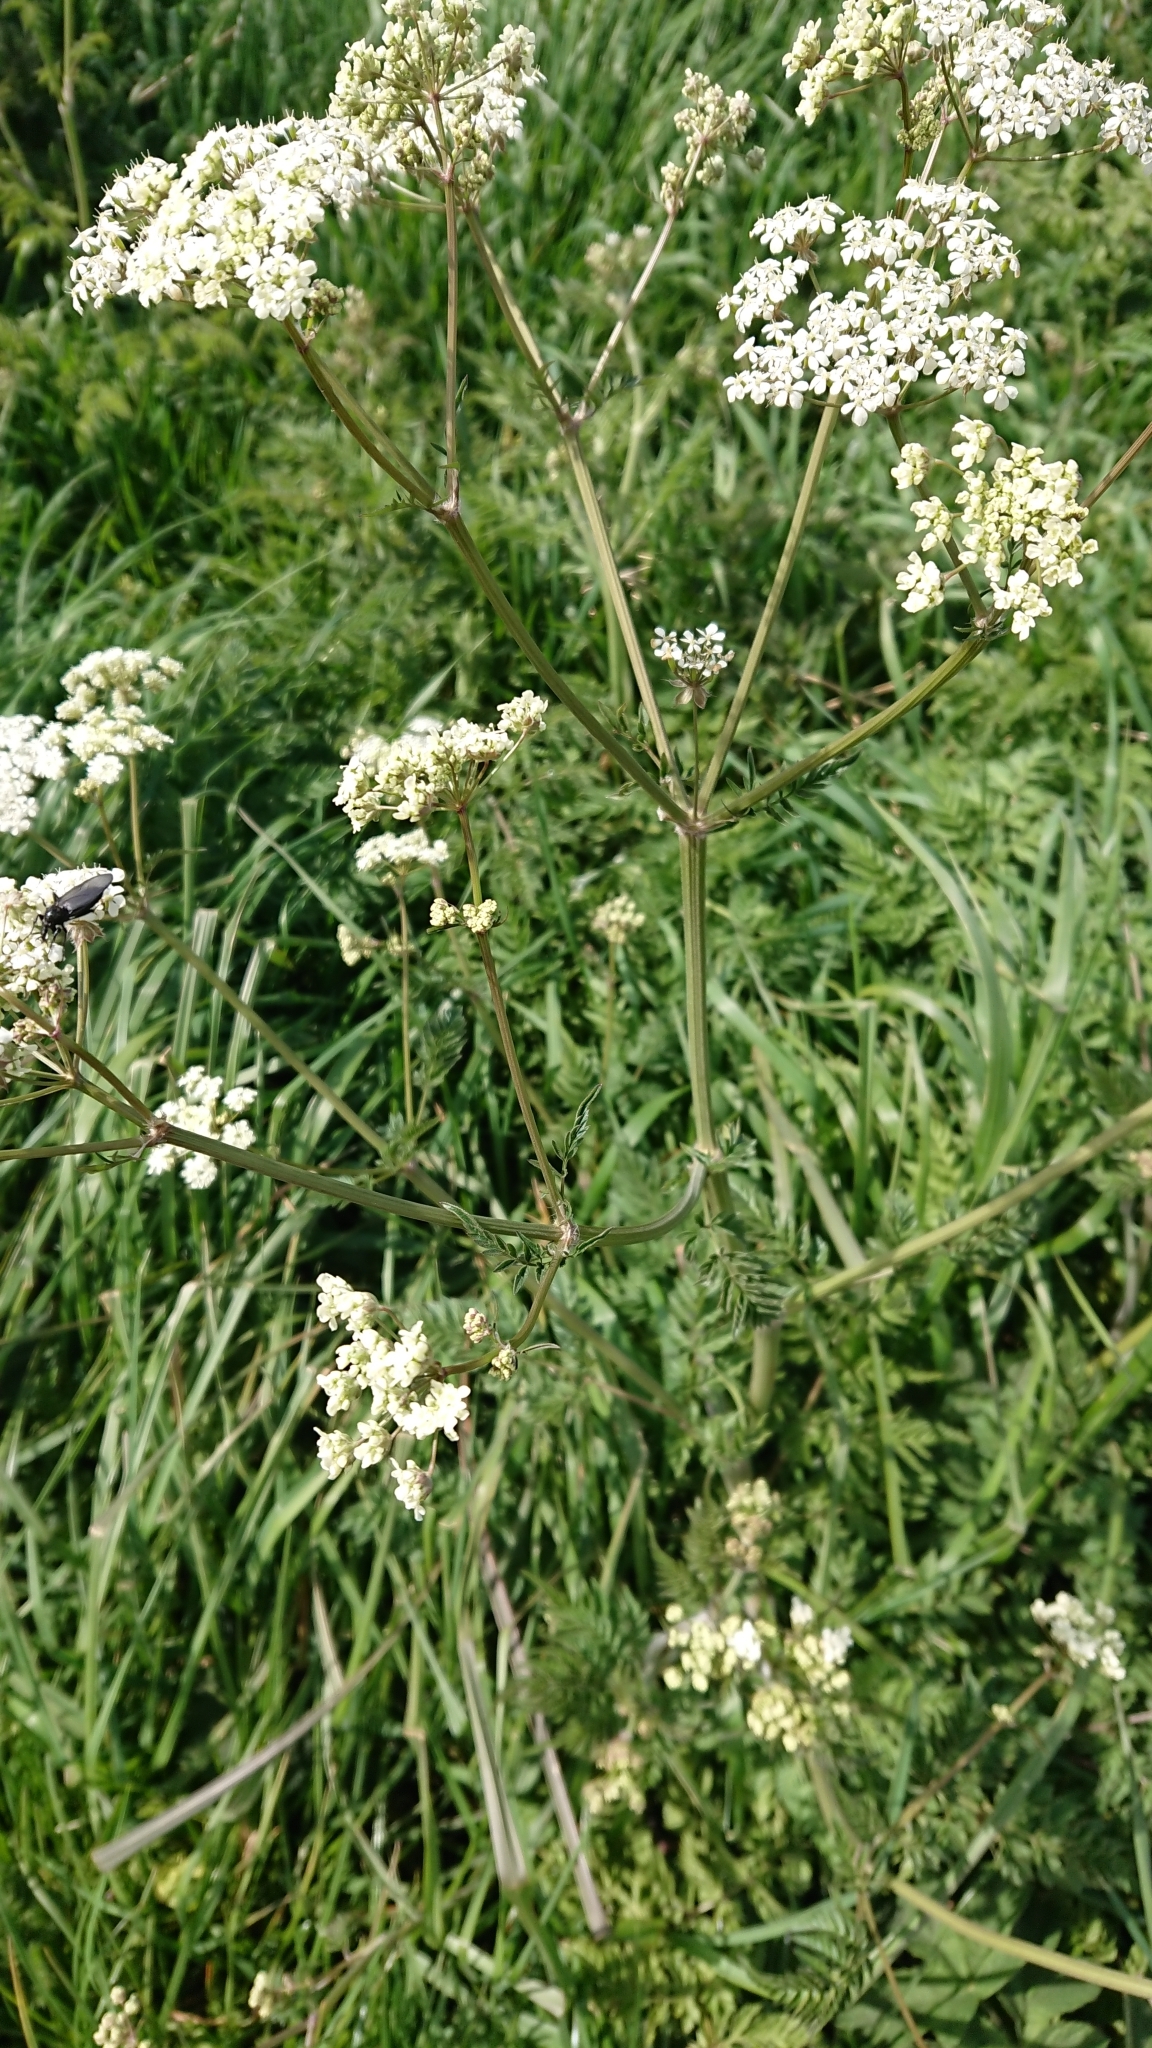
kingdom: Plantae
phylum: Tracheophyta
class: Magnoliopsida
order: Apiales
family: Apiaceae
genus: Anthriscus
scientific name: Anthriscus sylvestris
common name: Cow parsley
